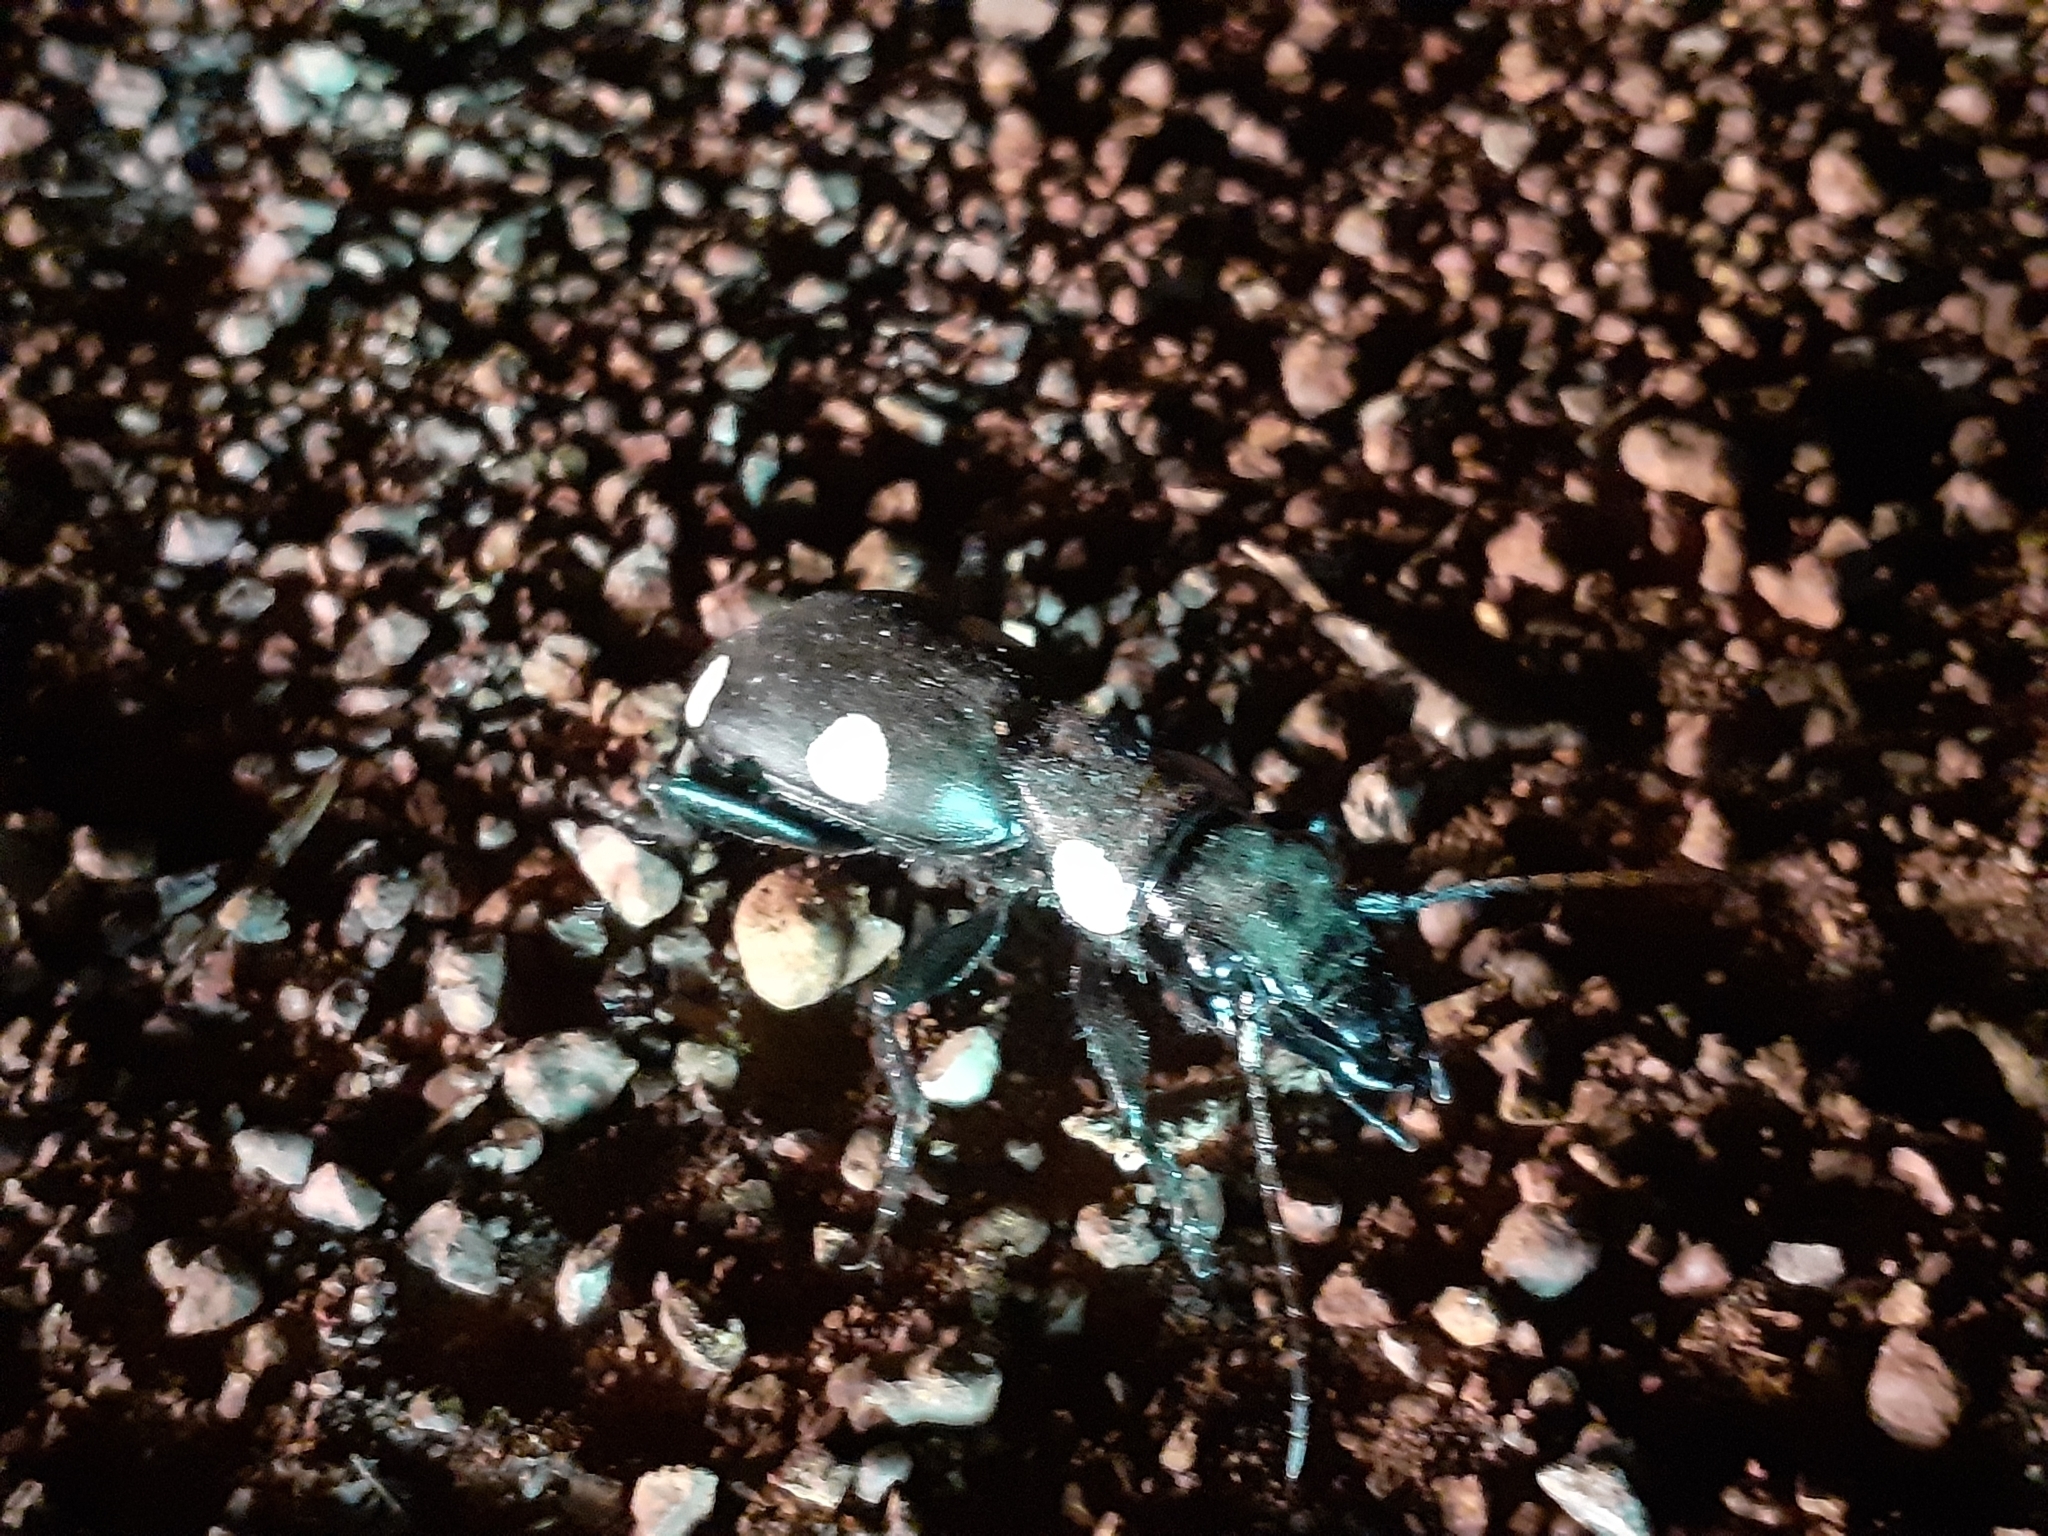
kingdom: Animalia
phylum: Arthropoda
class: Insecta
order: Coleoptera
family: Carabidae
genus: Anthia
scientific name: Anthia sexguttata
